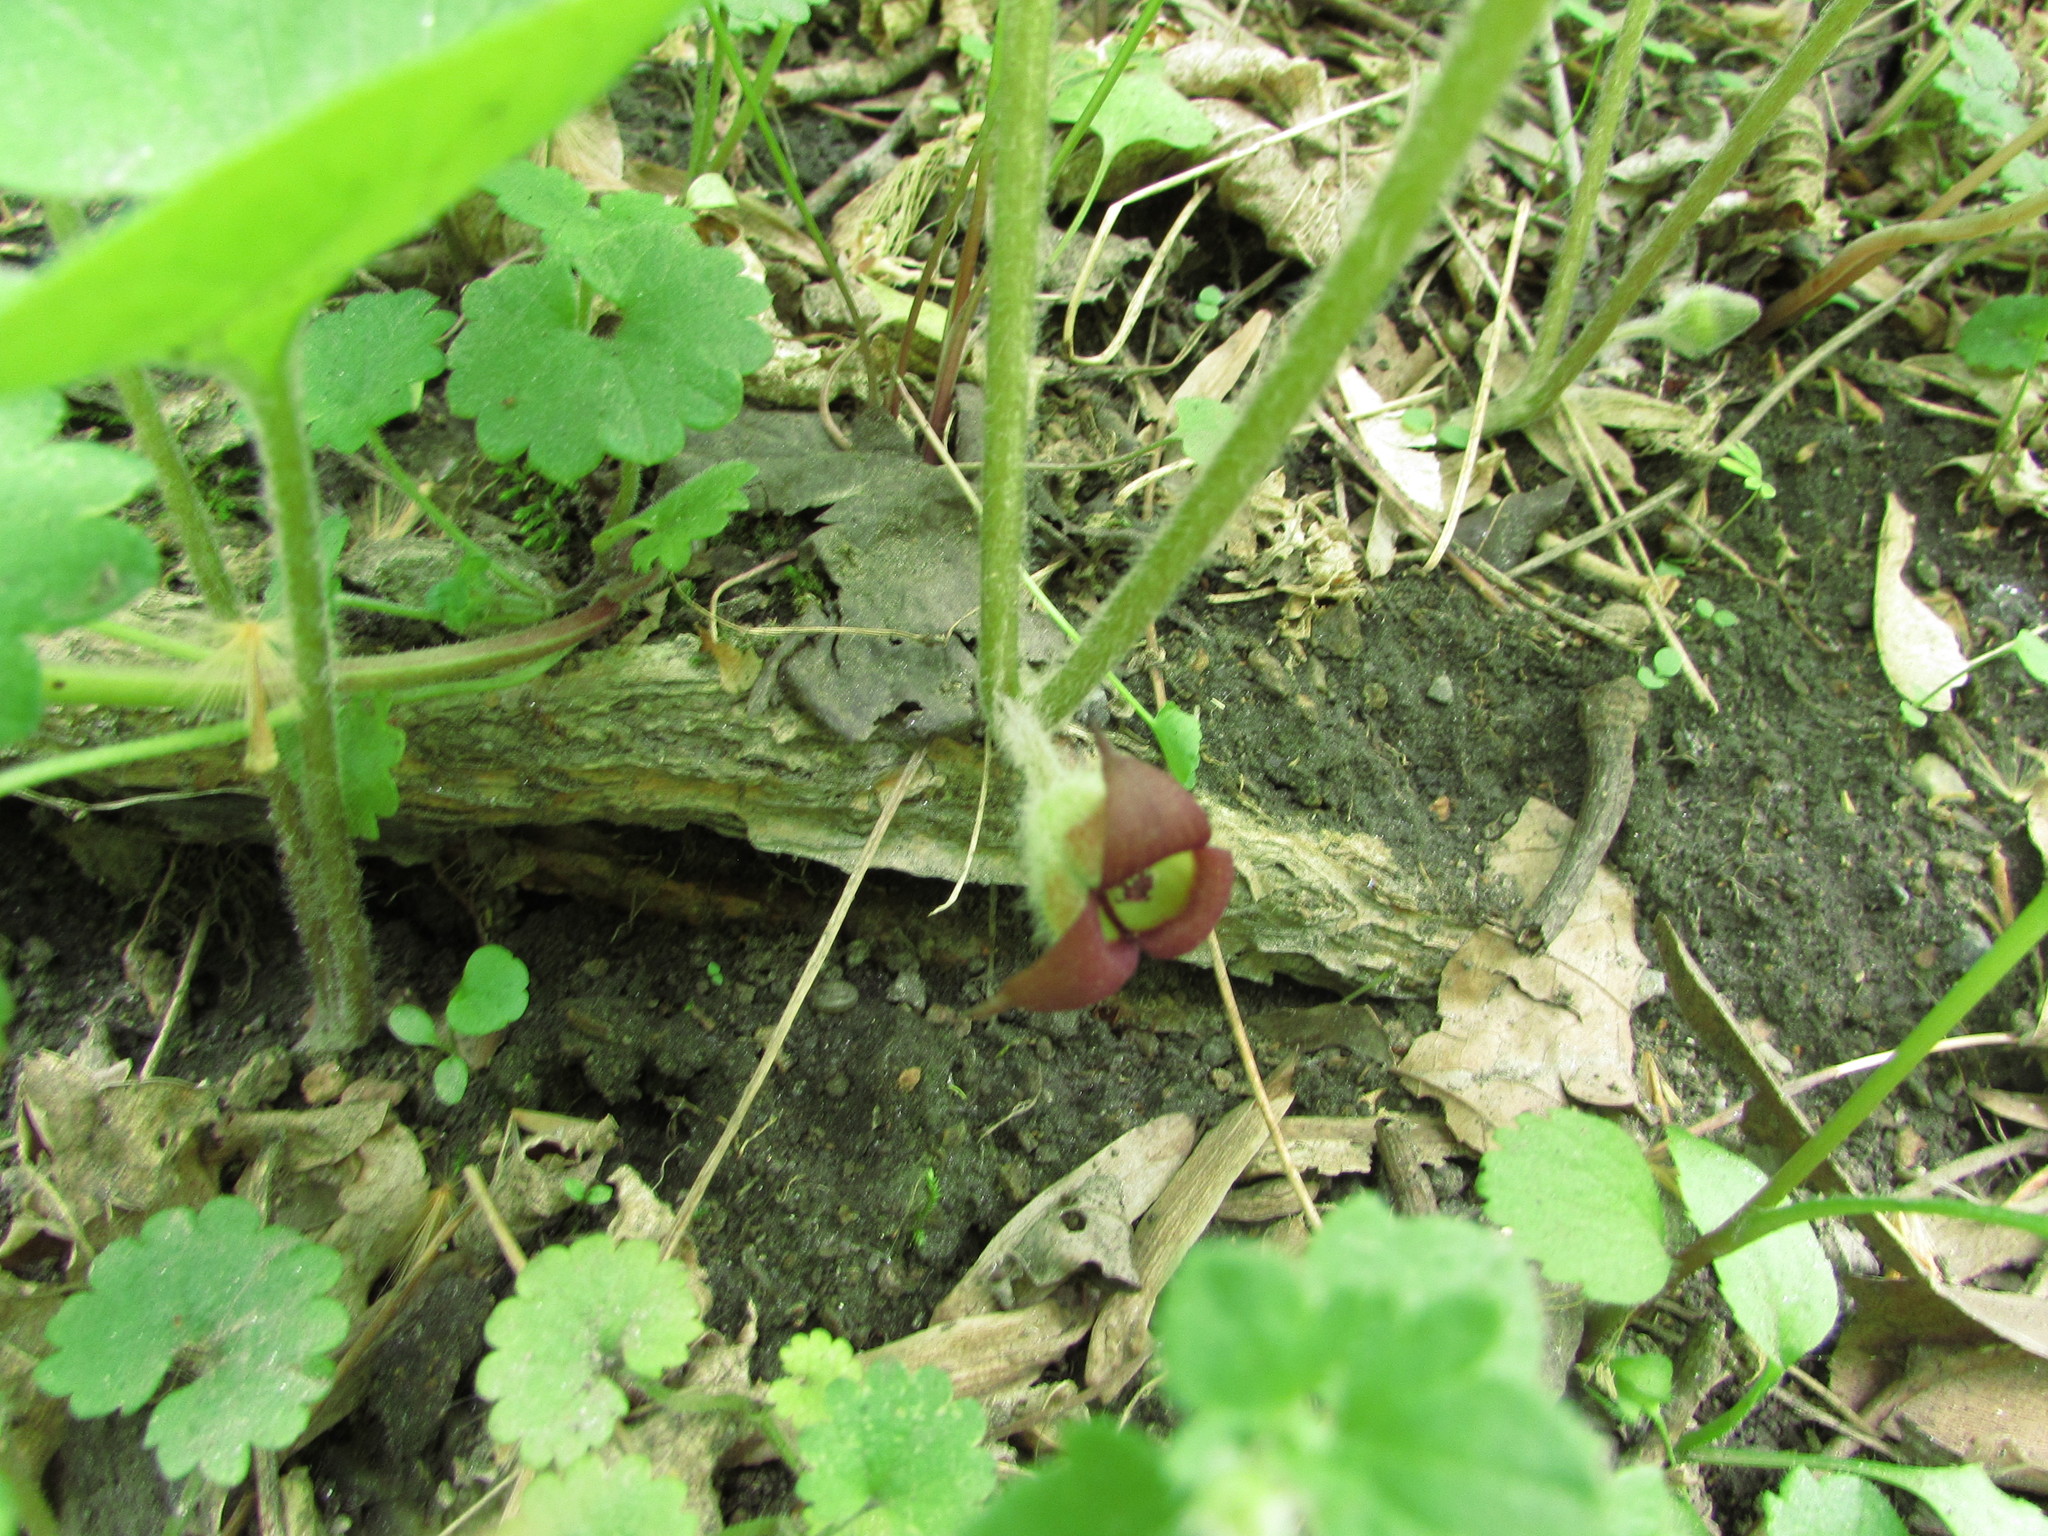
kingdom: Plantae
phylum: Tracheophyta
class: Magnoliopsida
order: Piperales
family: Aristolochiaceae
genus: Asarum
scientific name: Asarum canadense
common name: Wild ginger
